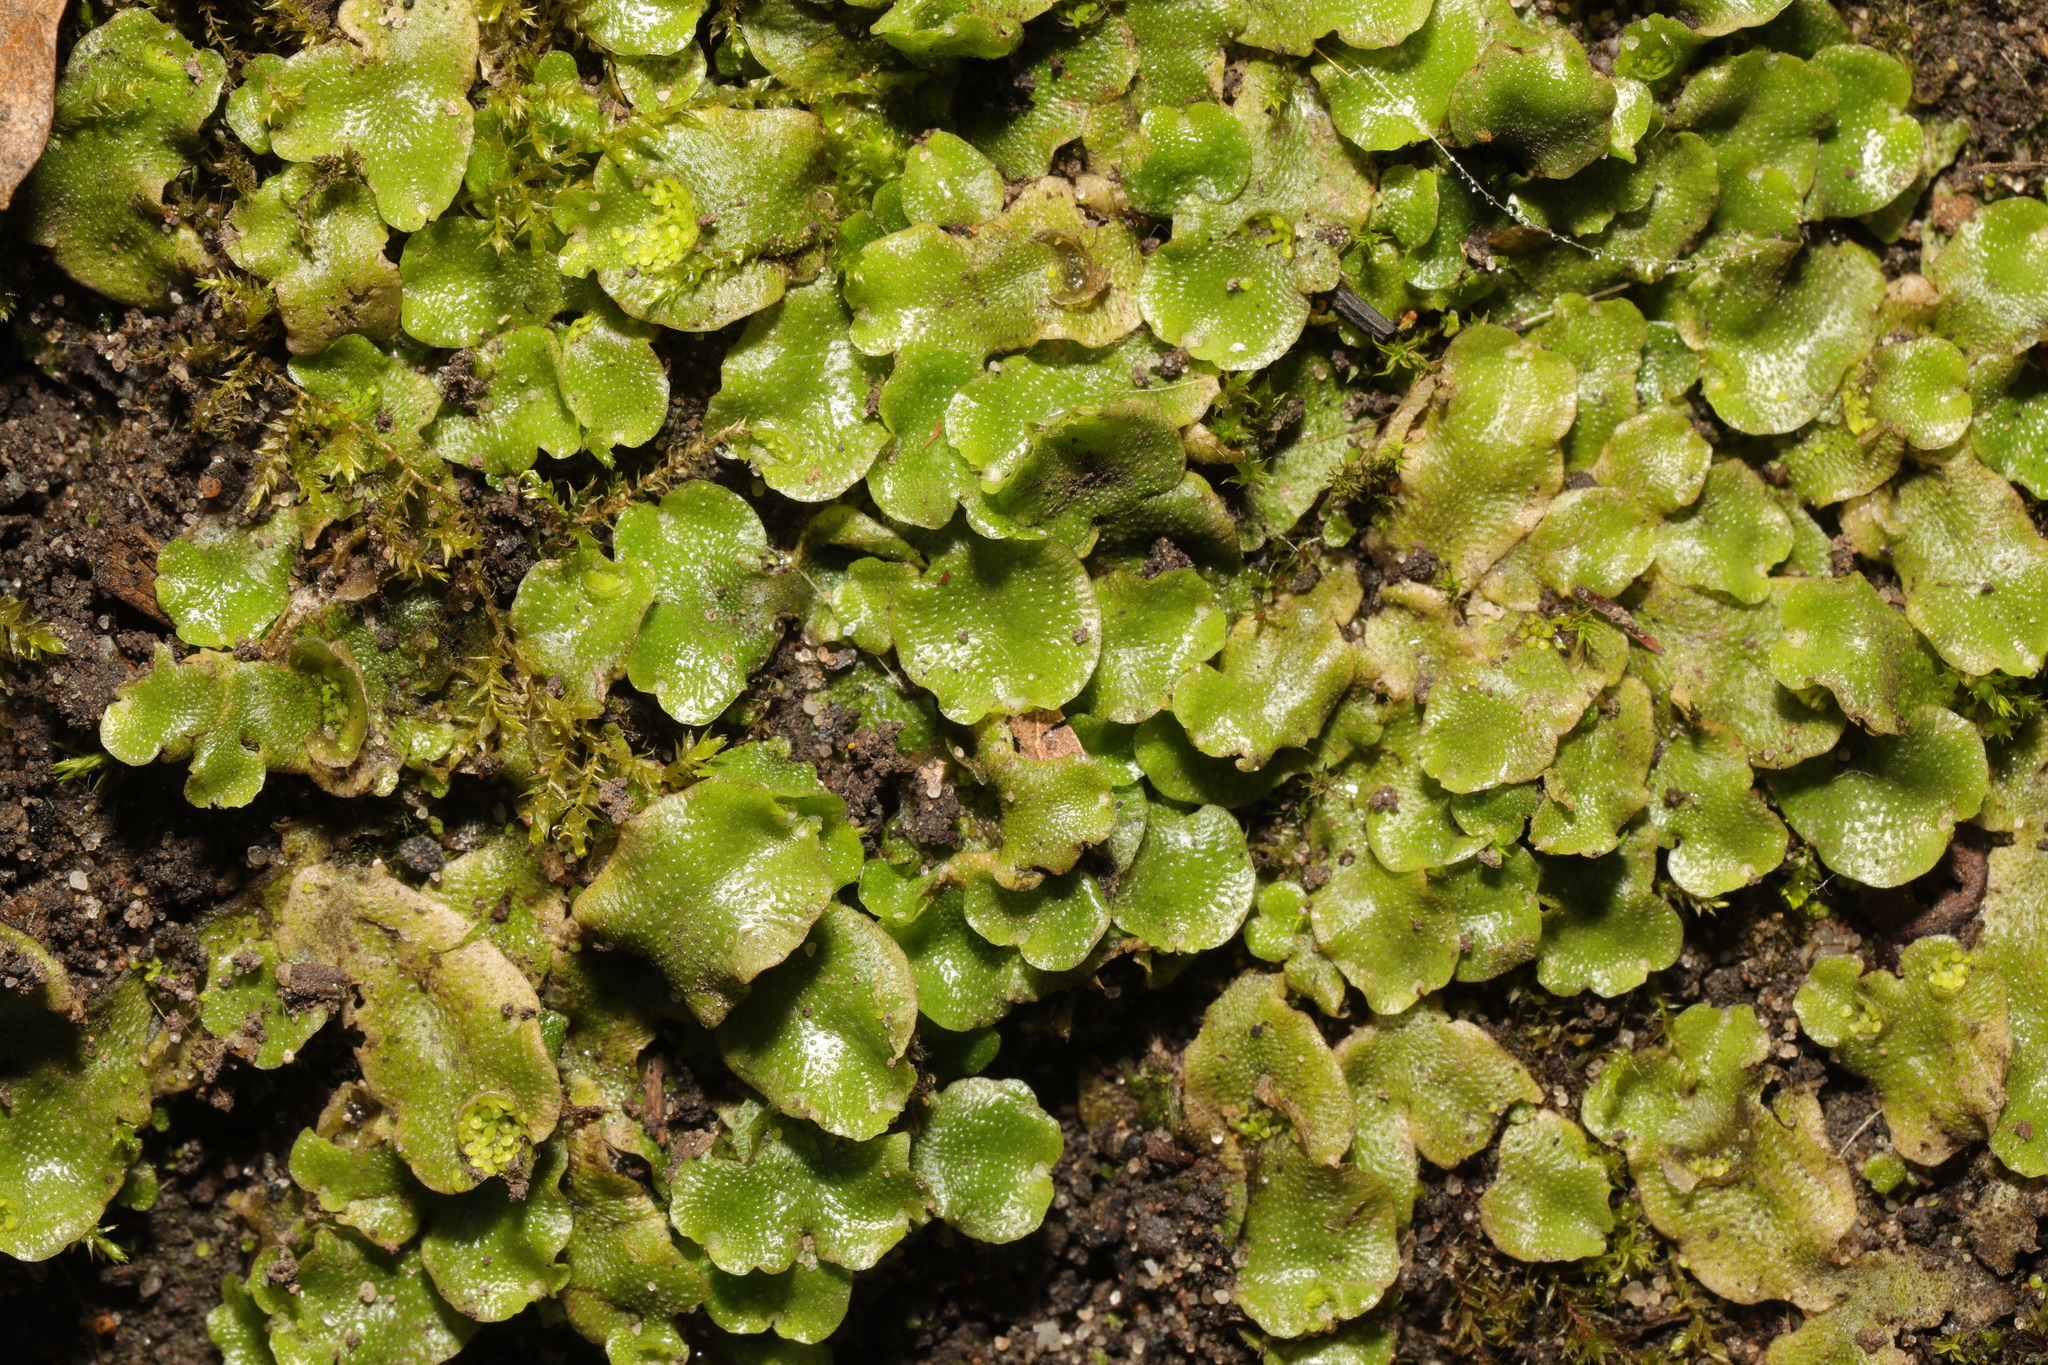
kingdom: Plantae
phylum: Marchantiophyta
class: Marchantiopsida
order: Lunulariales
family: Lunulariaceae
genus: Lunularia
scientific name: Lunularia cruciata
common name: Crescent-cup liverwort
